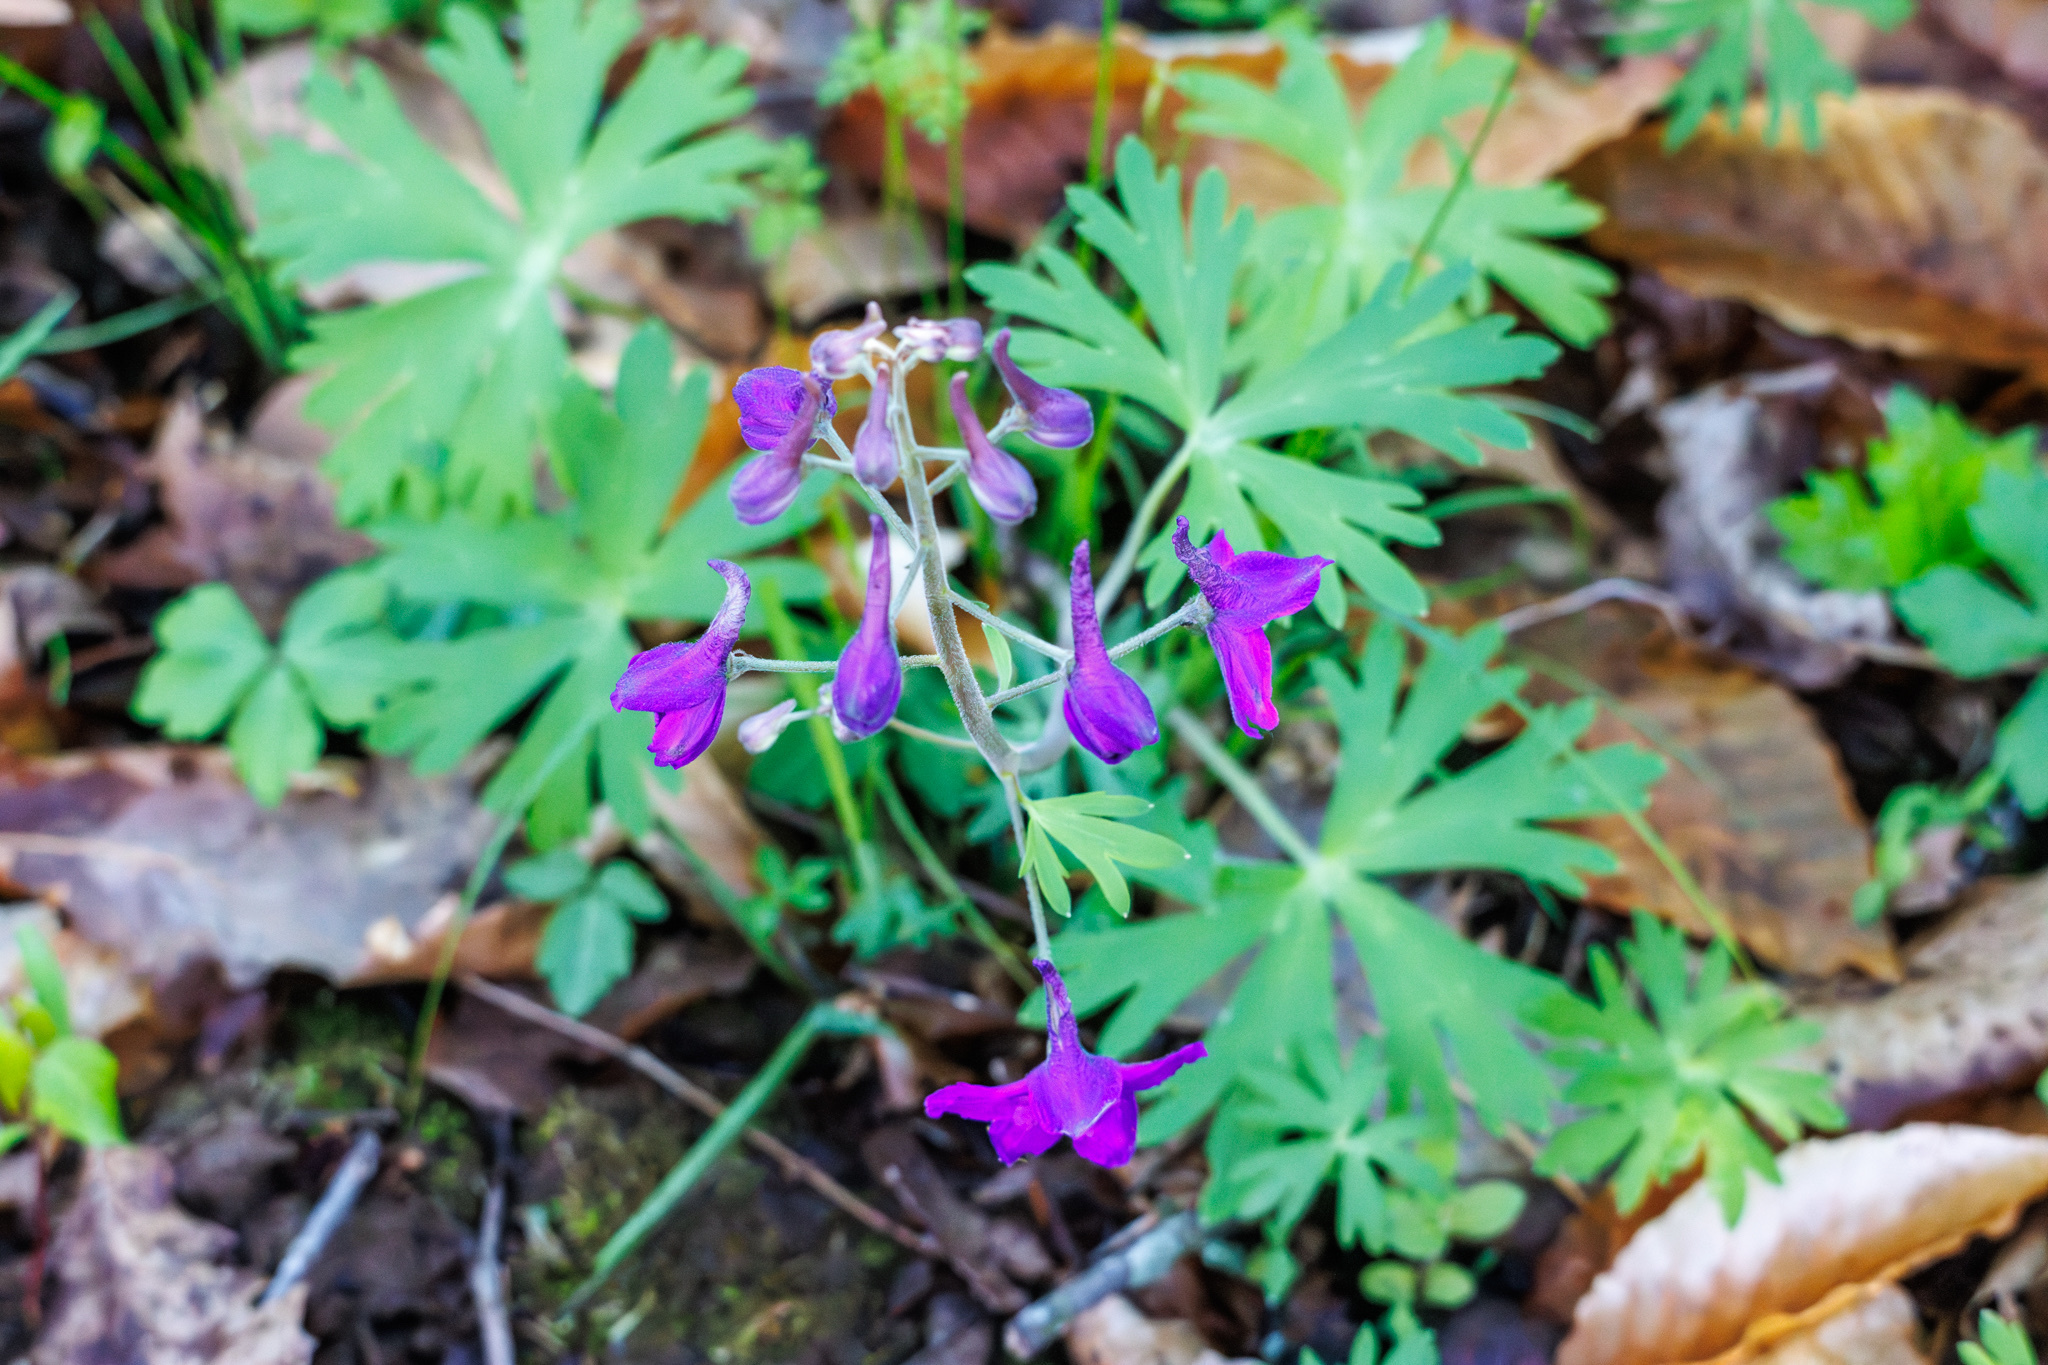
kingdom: Plantae
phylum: Tracheophyta
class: Magnoliopsida
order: Ranunculales
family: Ranunculaceae
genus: Delphinium
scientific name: Delphinium tricorne
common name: Dwarf larkspur
